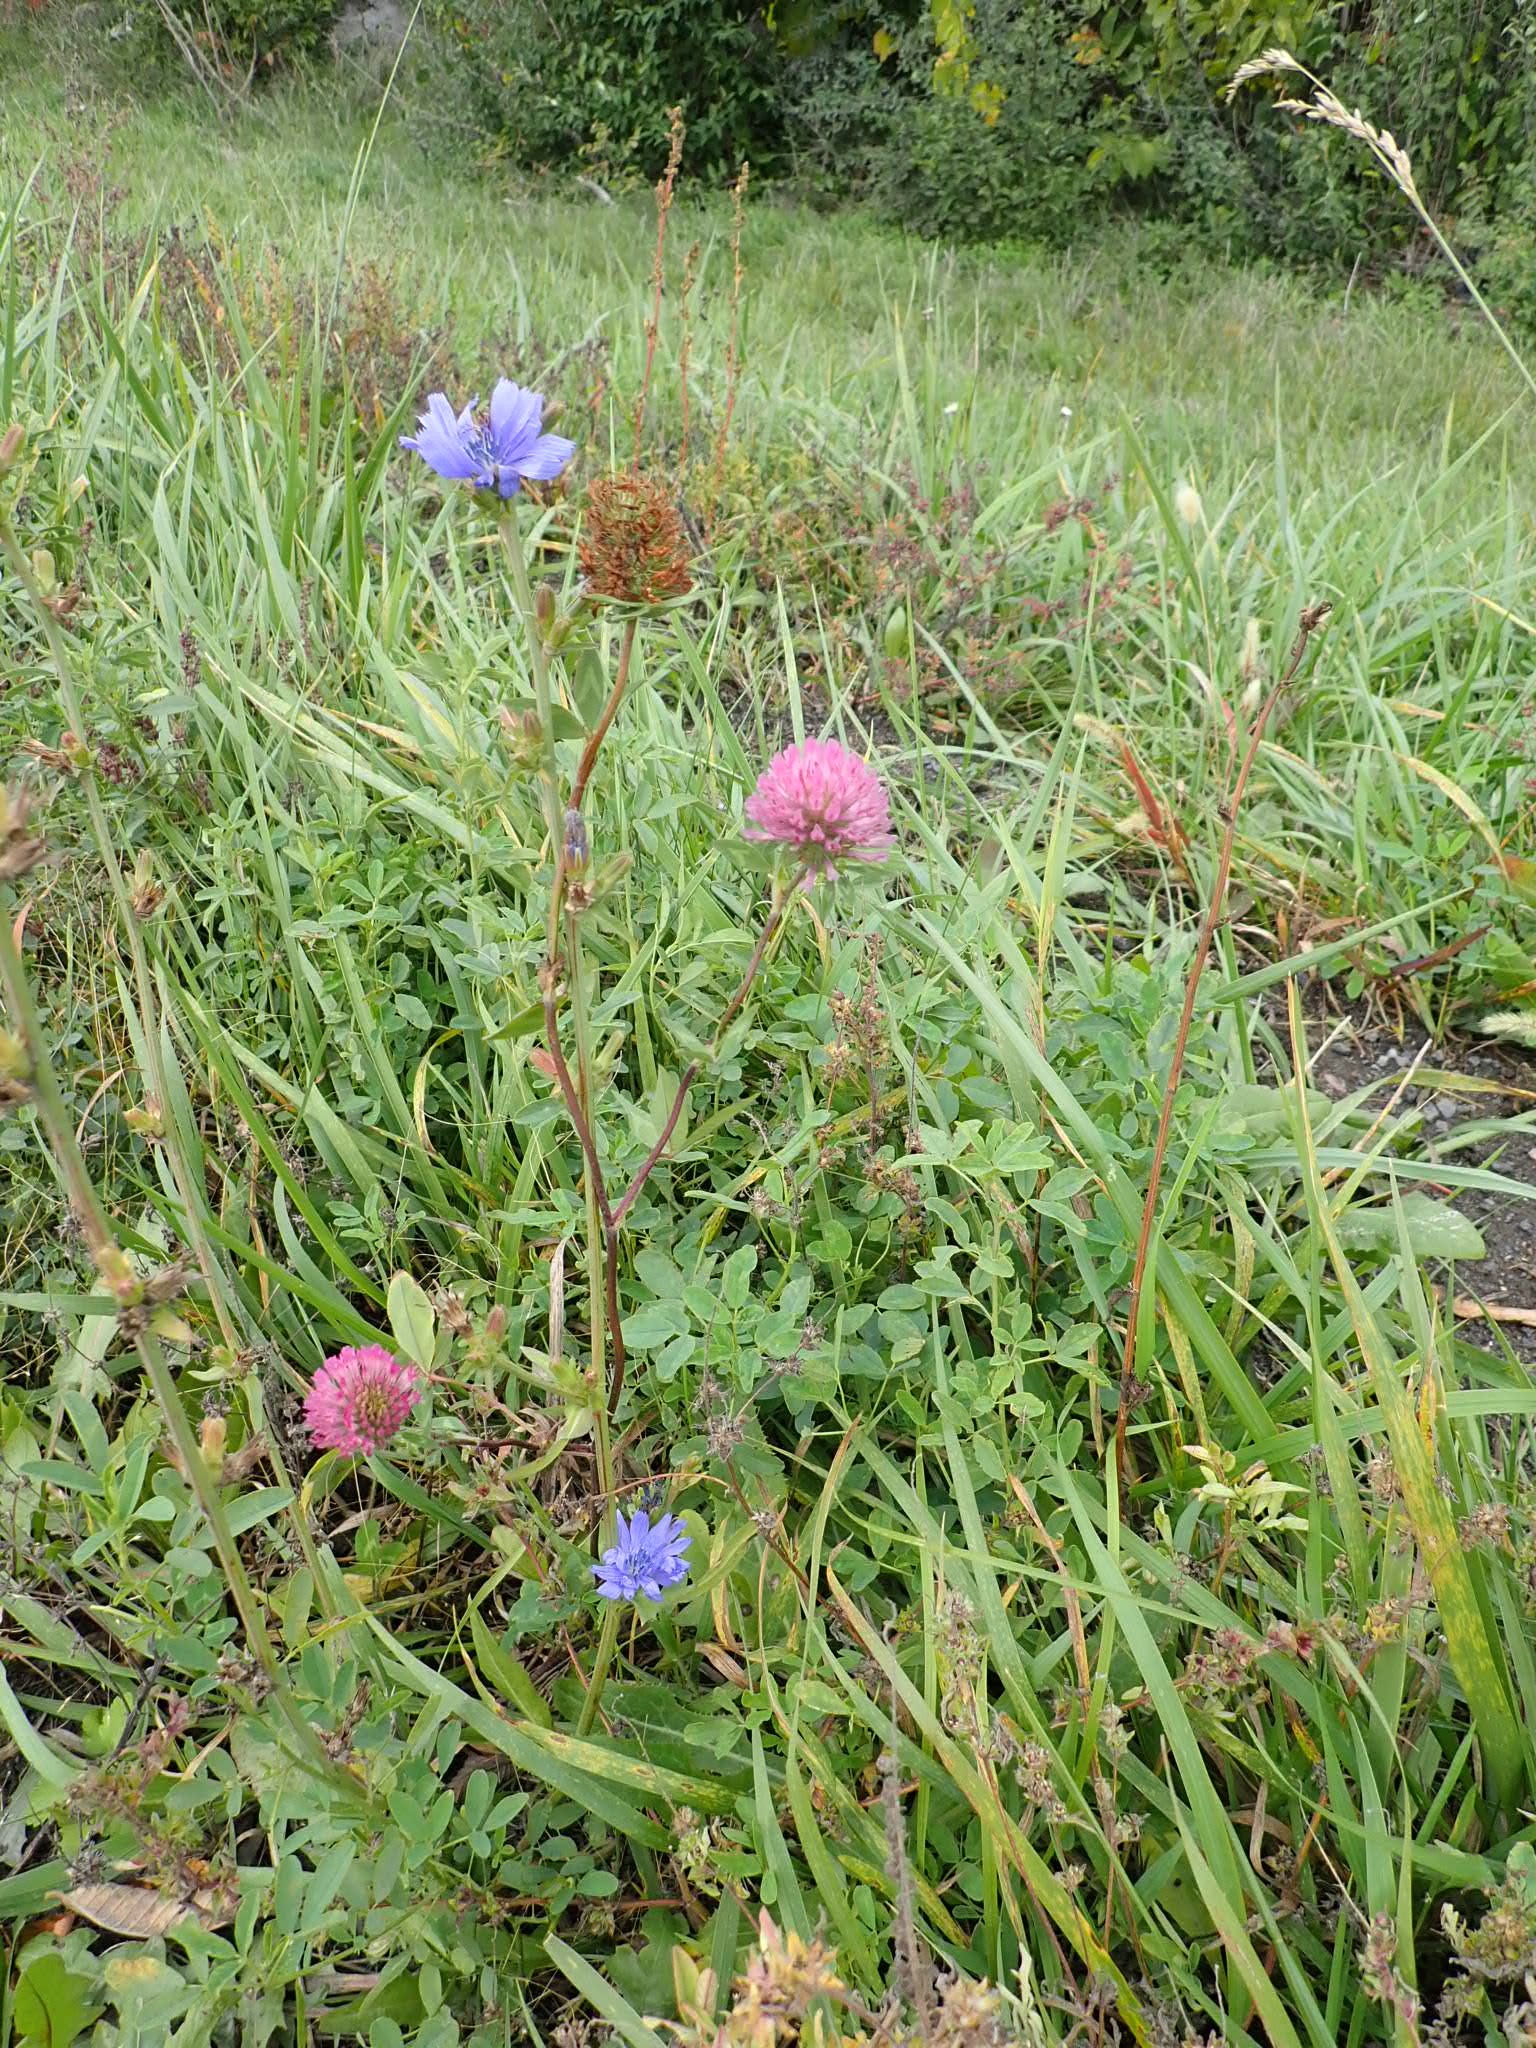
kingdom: Plantae
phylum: Tracheophyta
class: Magnoliopsida
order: Asterales
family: Asteraceae
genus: Cichorium
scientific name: Cichorium intybus
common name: Chicory
